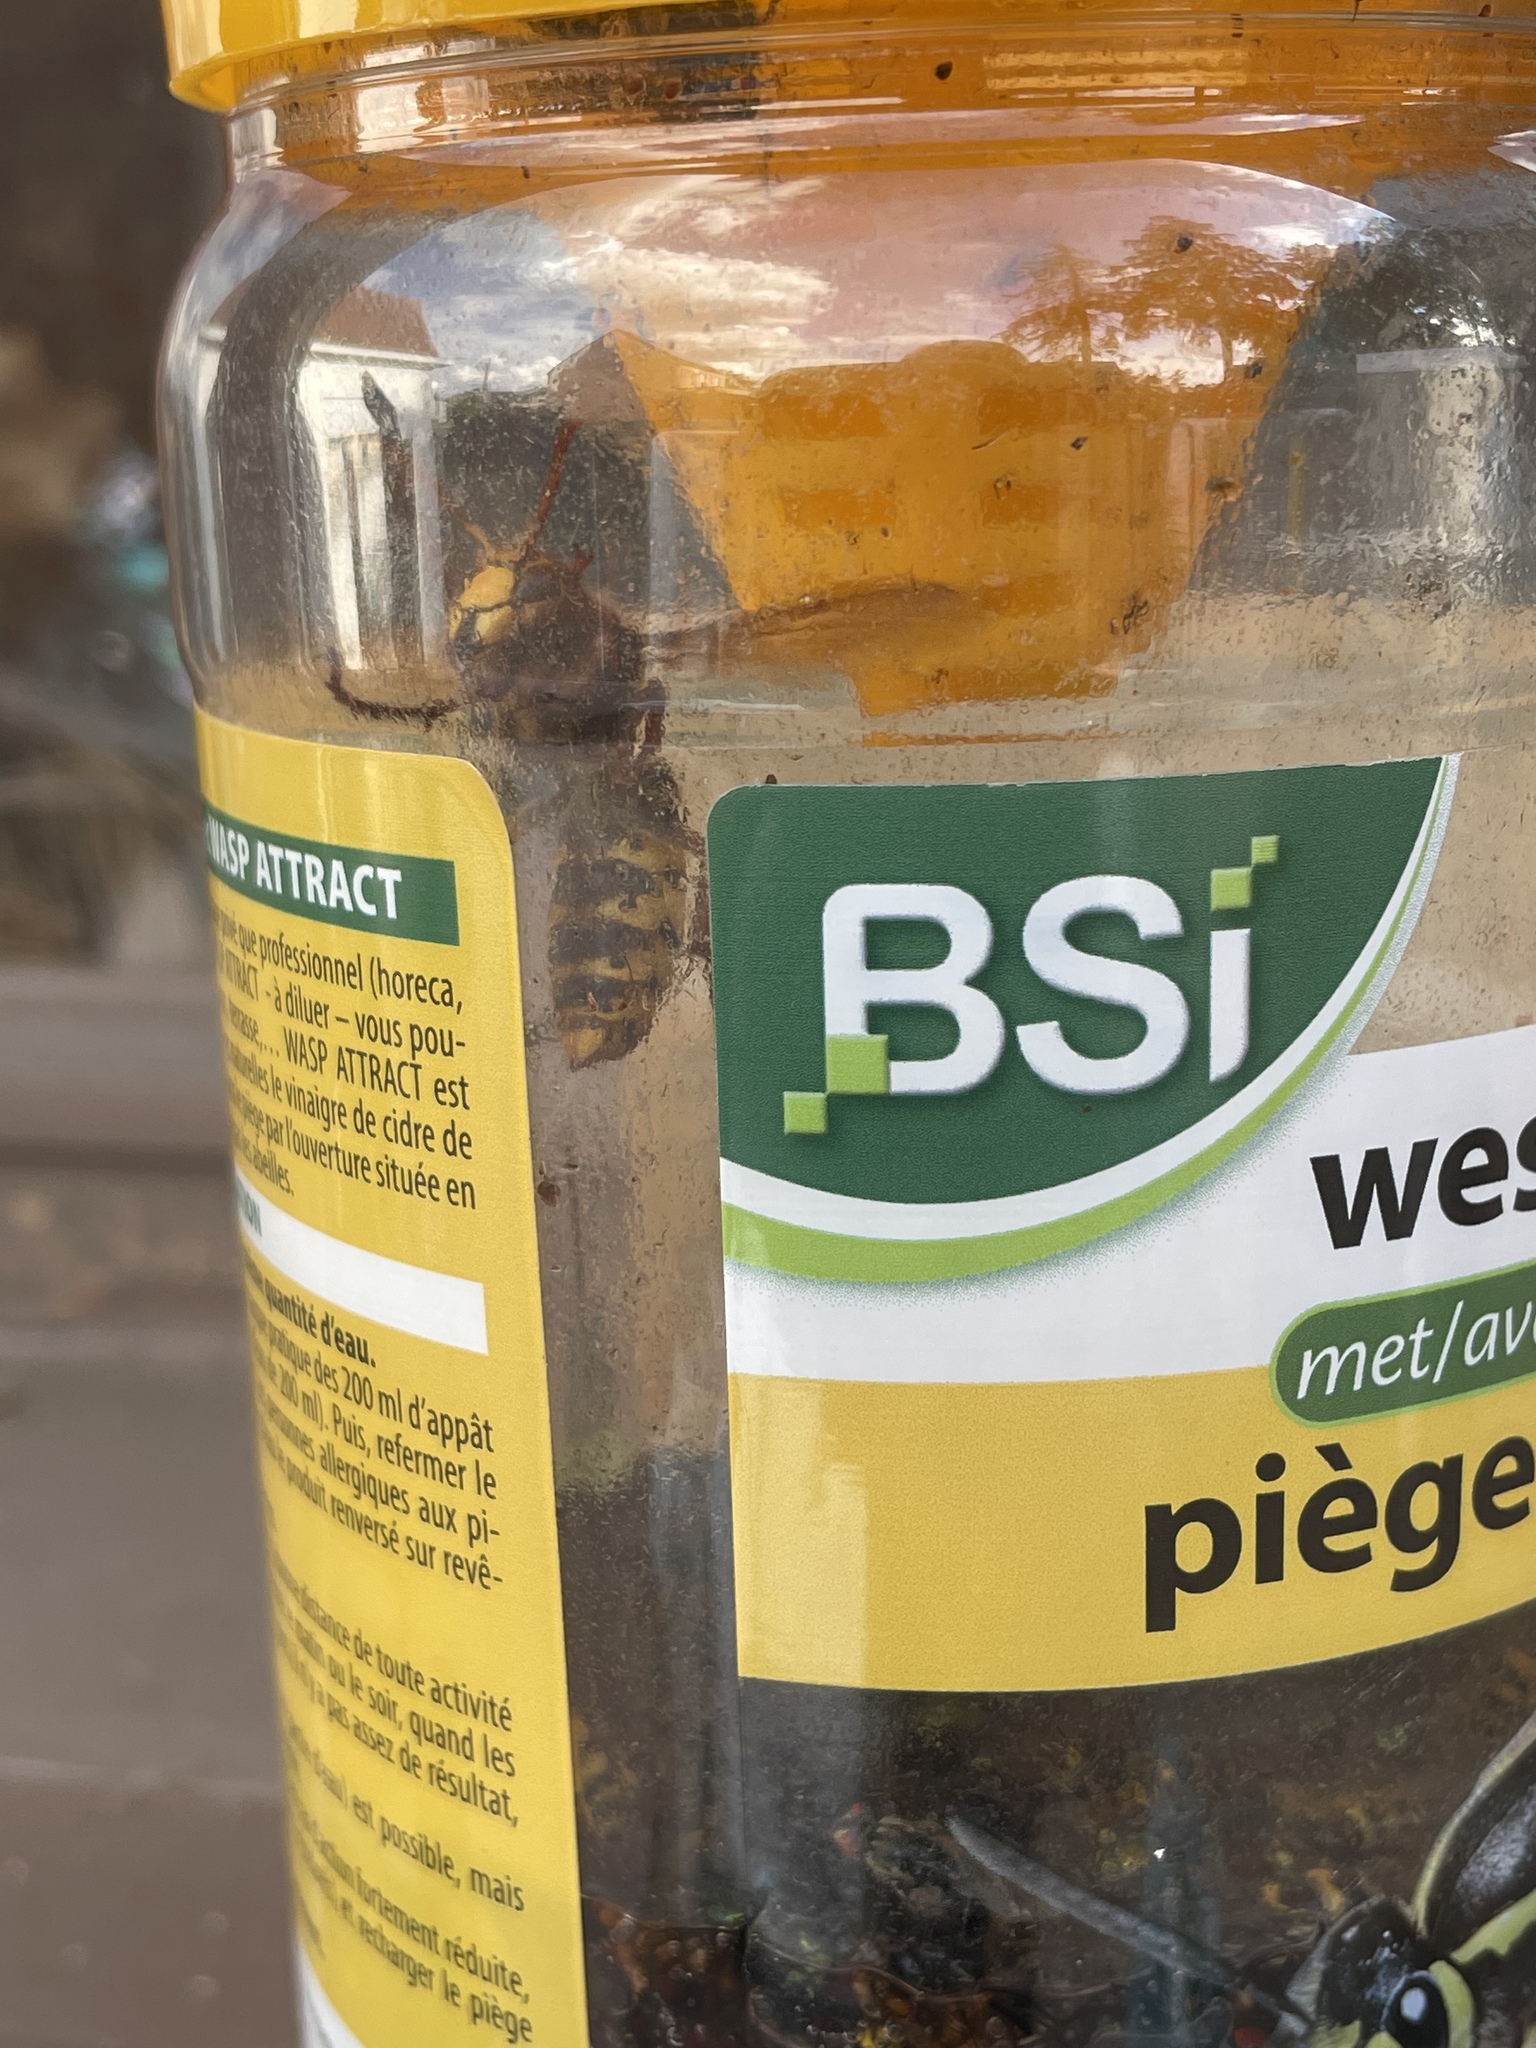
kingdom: Animalia
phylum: Arthropoda
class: Insecta
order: Hymenoptera
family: Vespidae
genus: Vespa
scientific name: Vespa crabro
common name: Hornet
